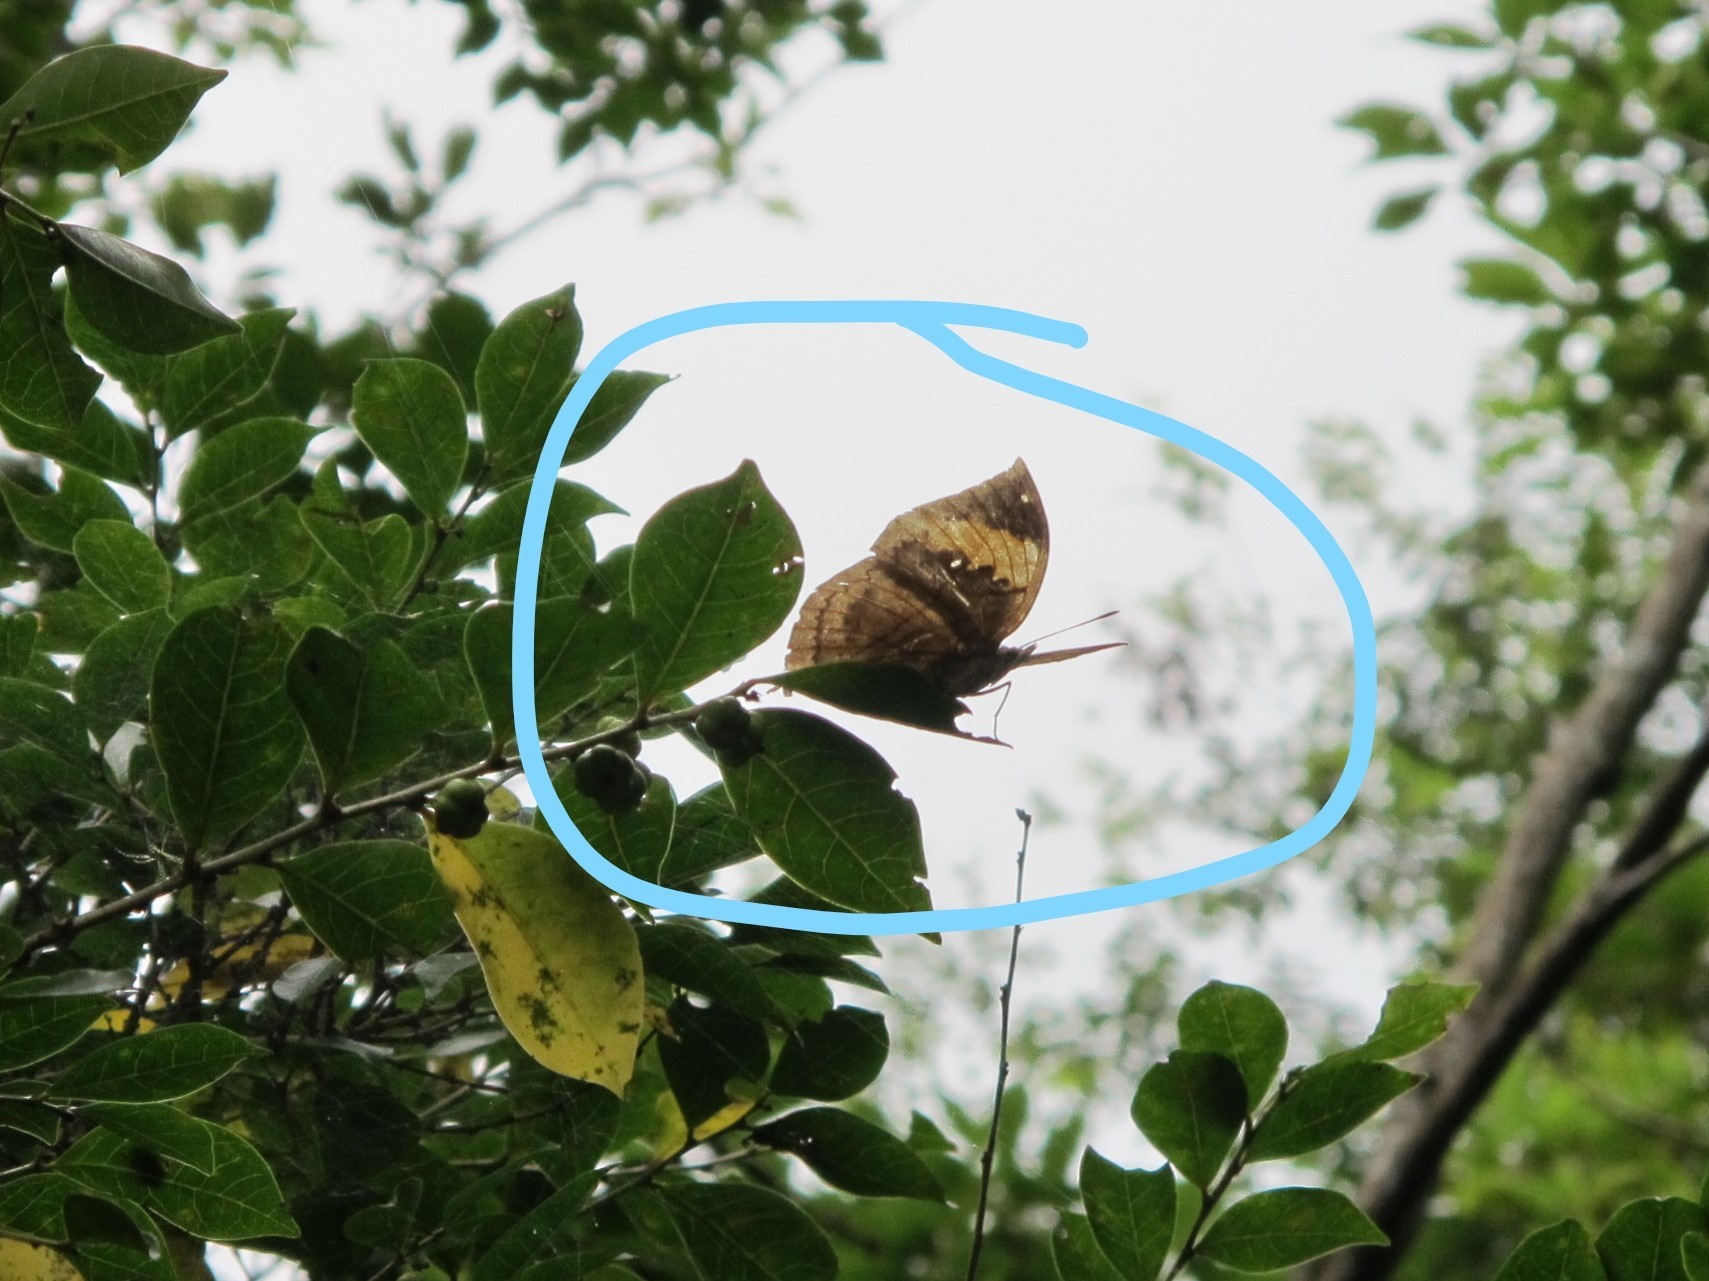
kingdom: Animalia
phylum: Arthropoda
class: Insecta
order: Lepidoptera
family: Nymphalidae
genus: Kallima
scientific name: Kallima inachus
